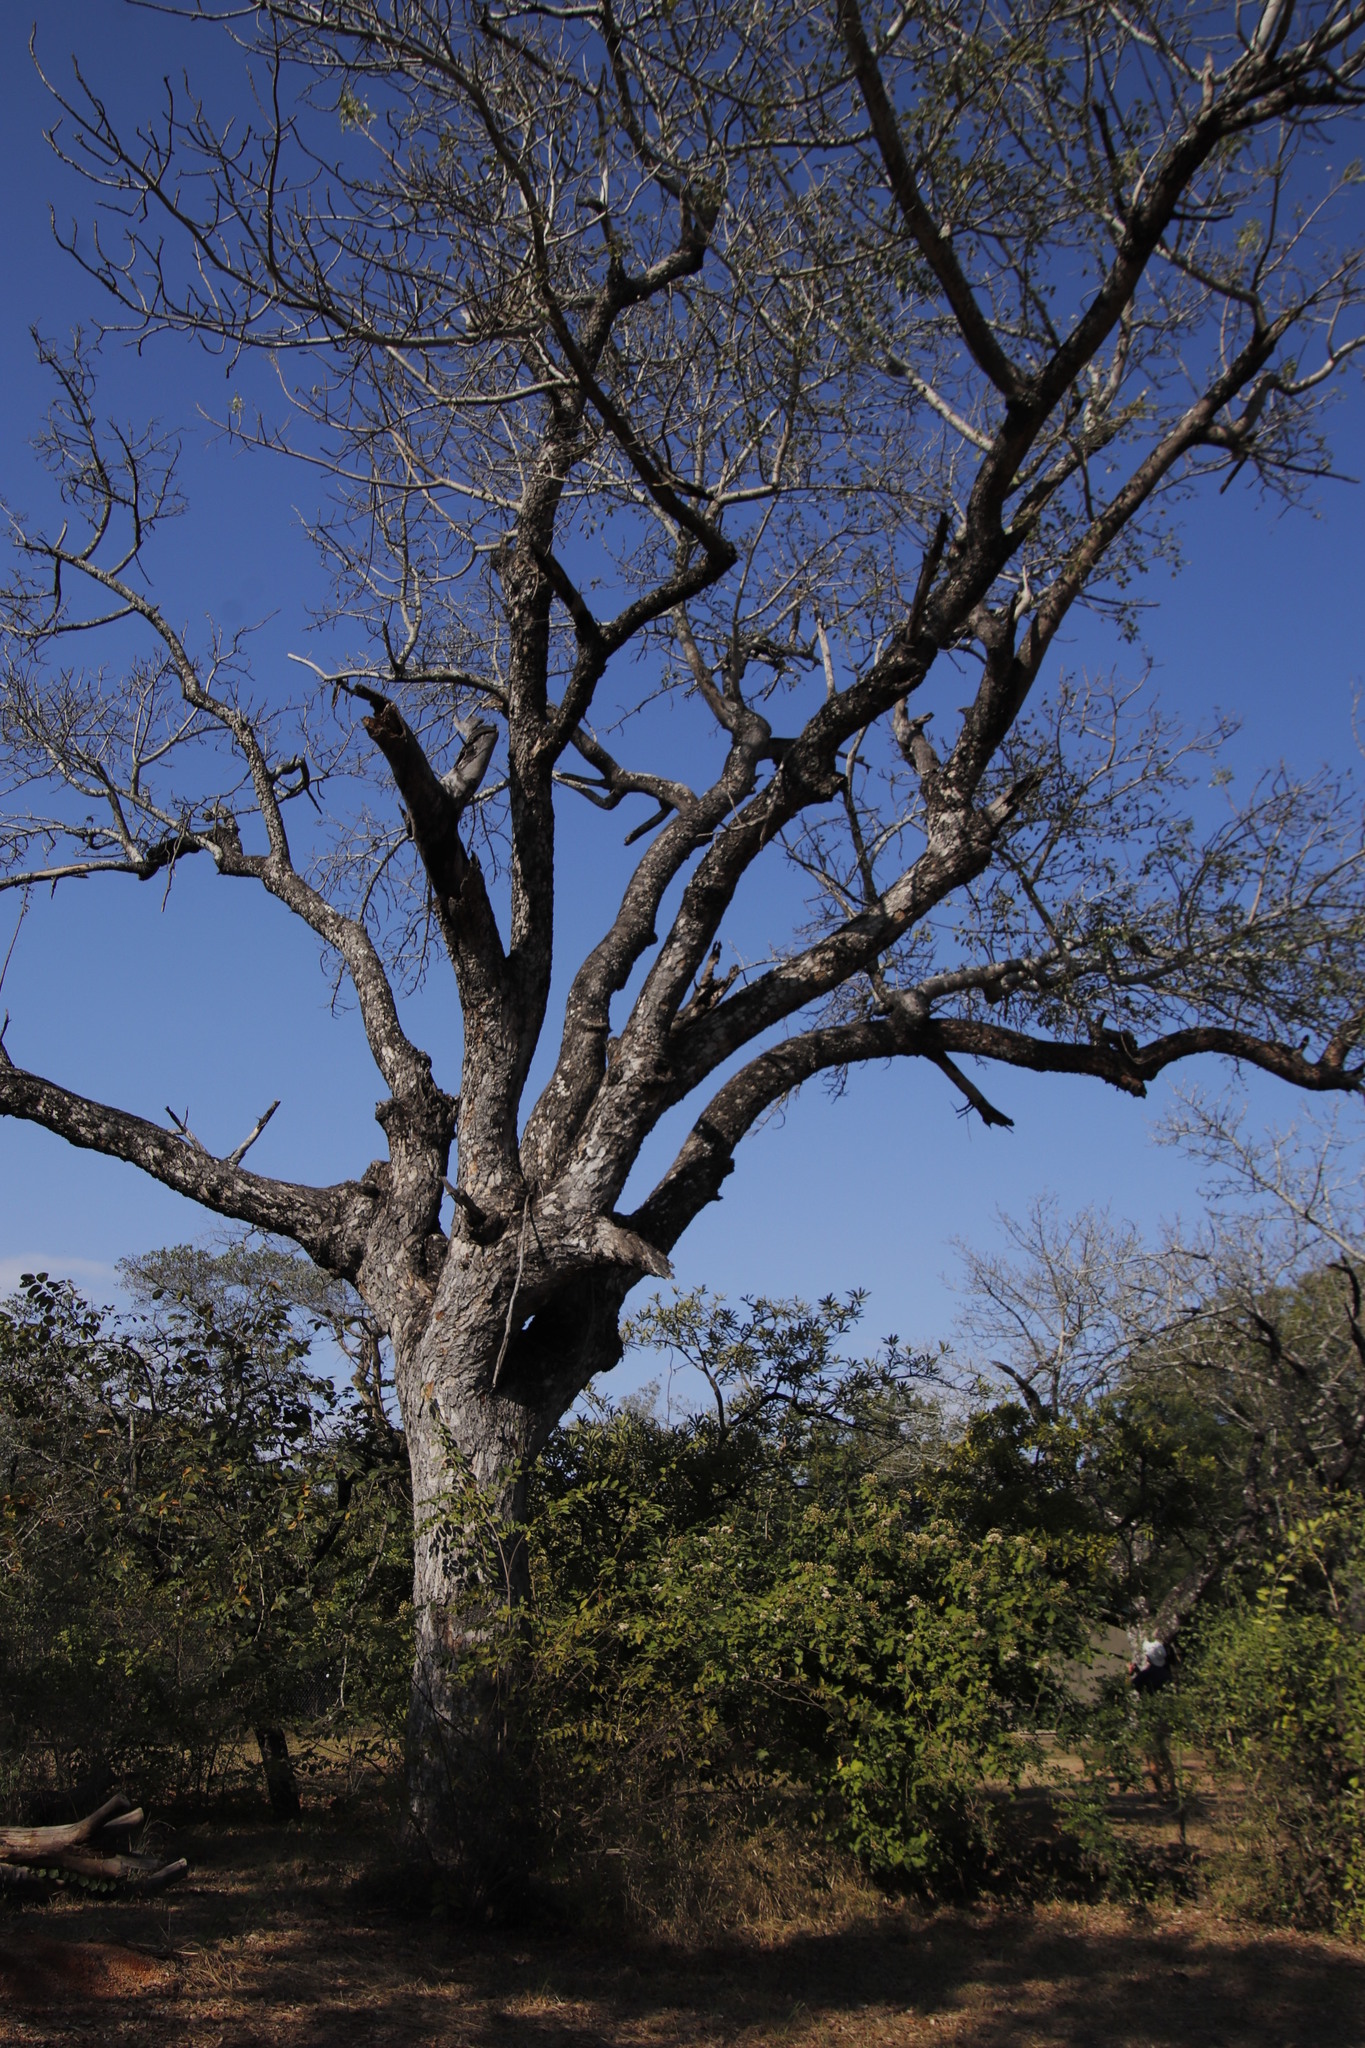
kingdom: Plantae
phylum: Tracheophyta
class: Magnoliopsida
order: Sapindales
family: Anacardiaceae
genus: Sclerocarya
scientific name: Sclerocarya birrea
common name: Marula
